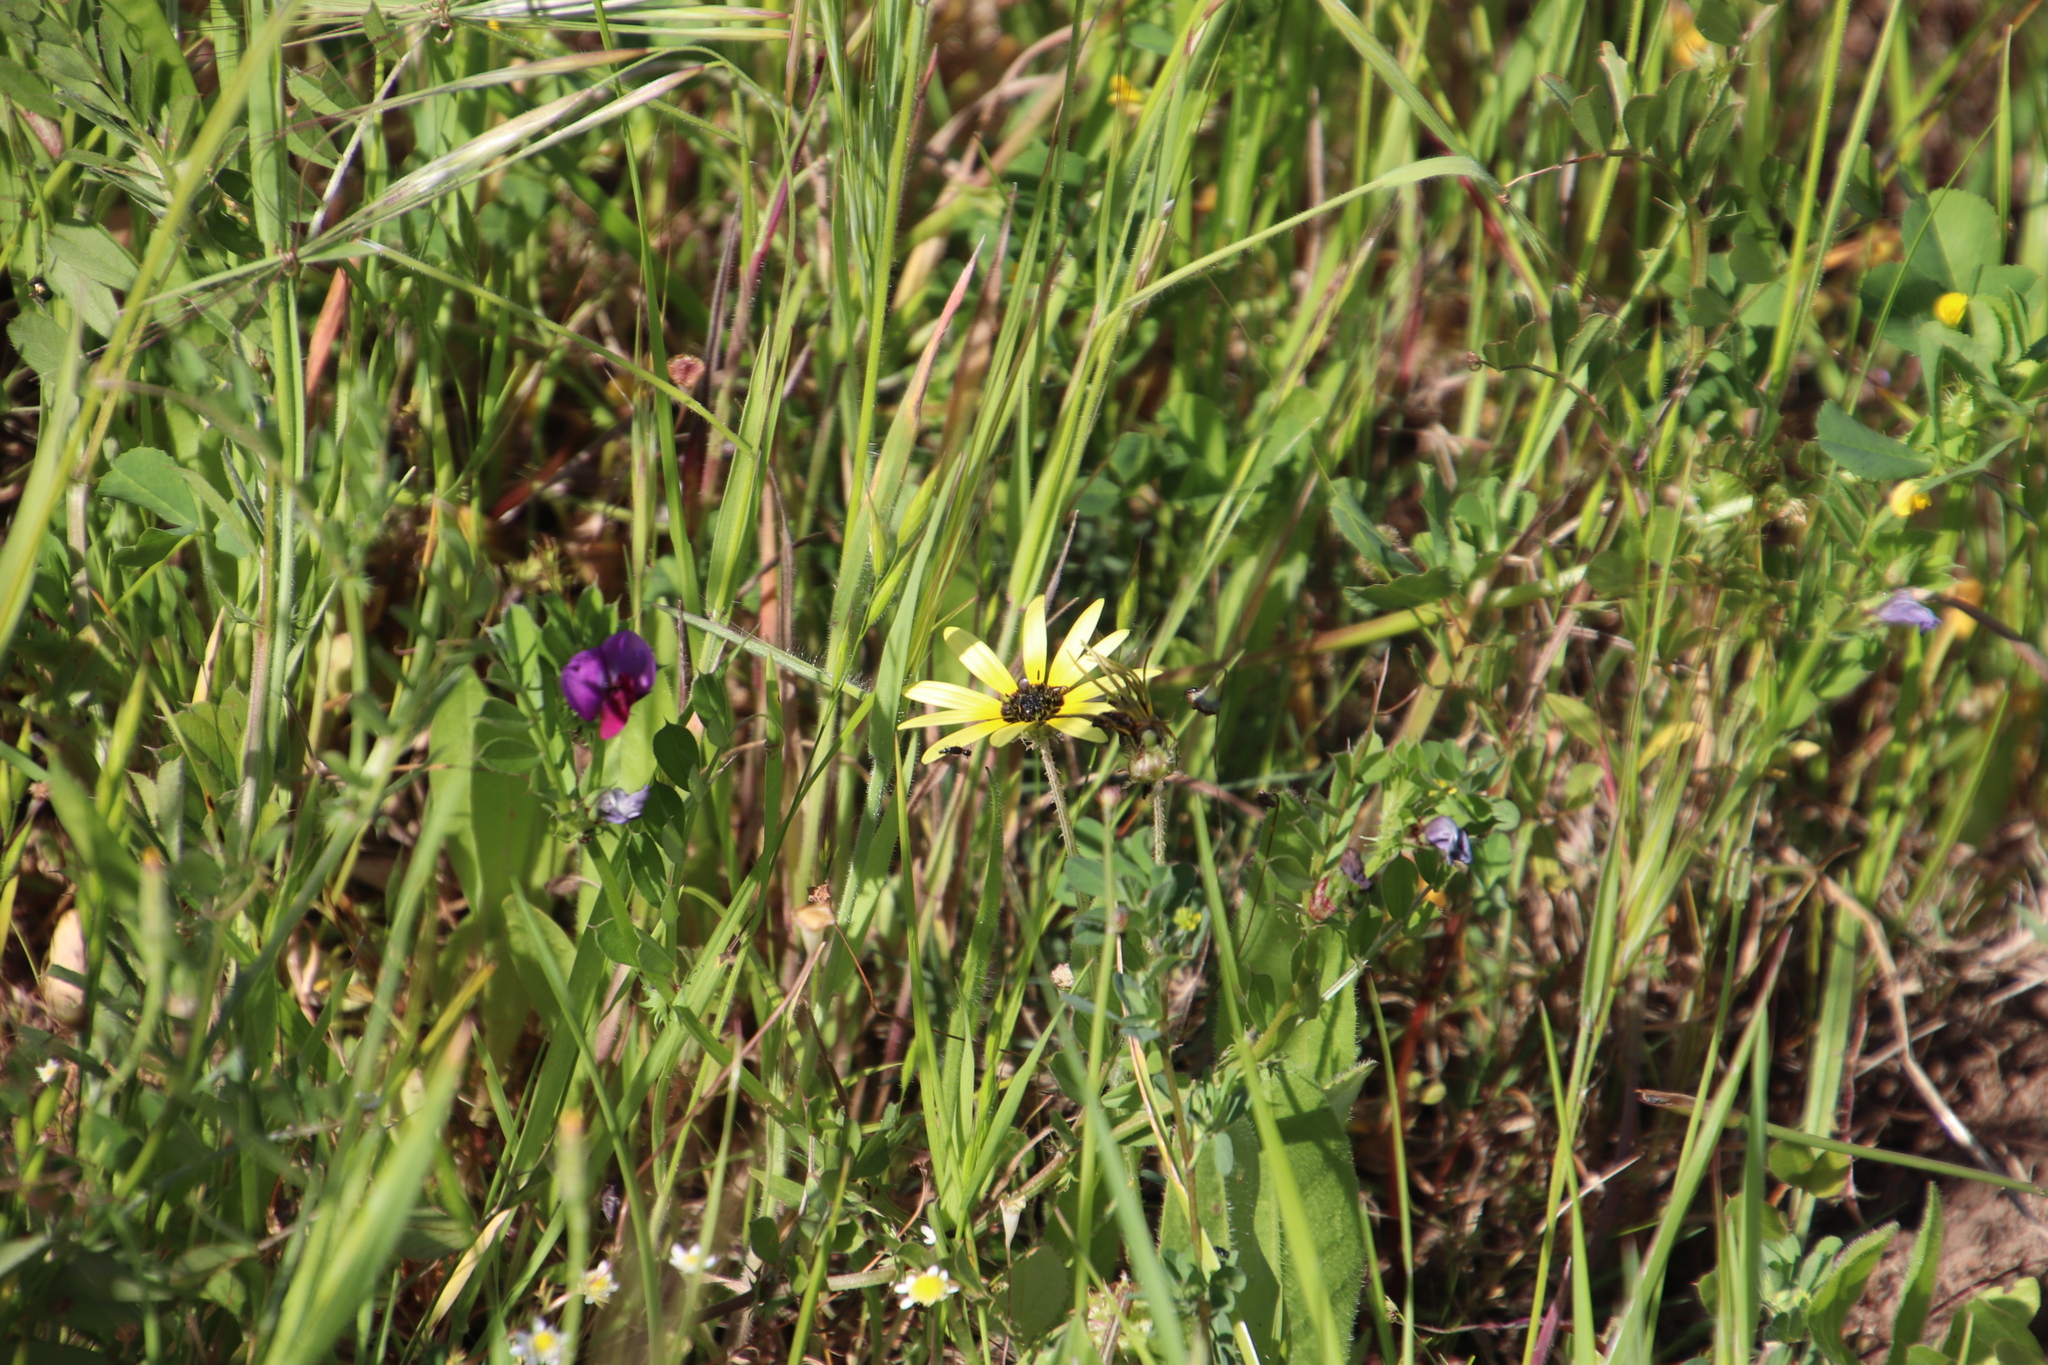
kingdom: Plantae
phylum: Tracheophyta
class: Magnoliopsida
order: Asterales
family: Asteraceae
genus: Arctotheca
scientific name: Arctotheca calendula
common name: Capeweed
